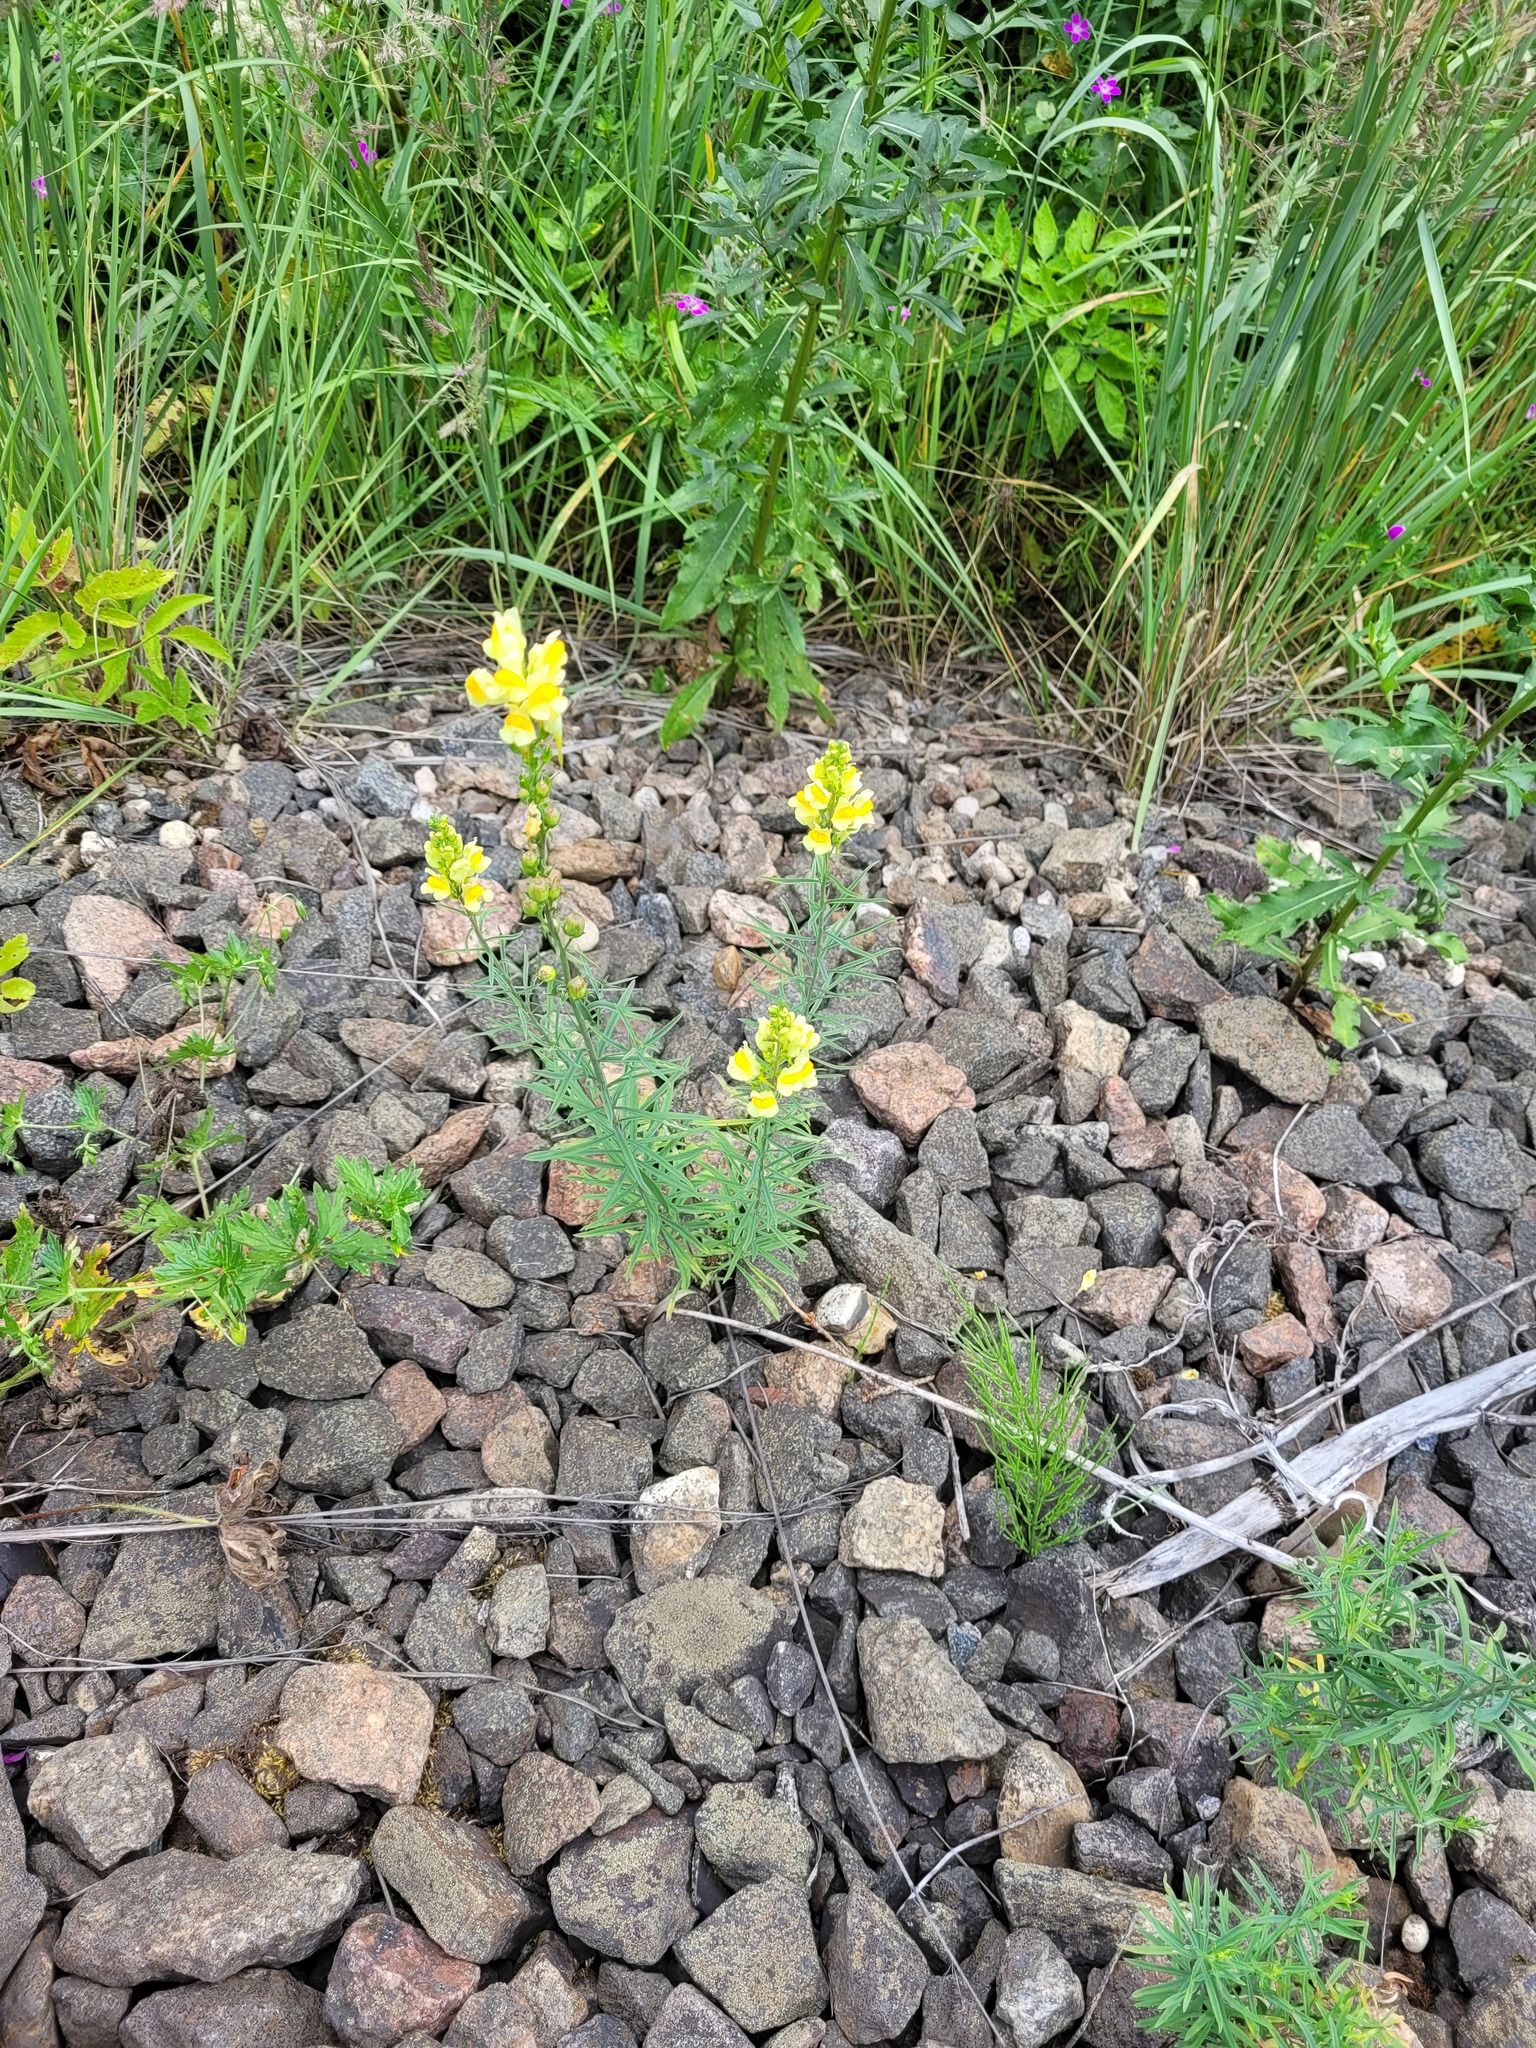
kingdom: Plantae
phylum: Tracheophyta
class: Magnoliopsida
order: Lamiales
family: Plantaginaceae
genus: Linaria
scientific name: Linaria vulgaris
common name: Butter and eggs
